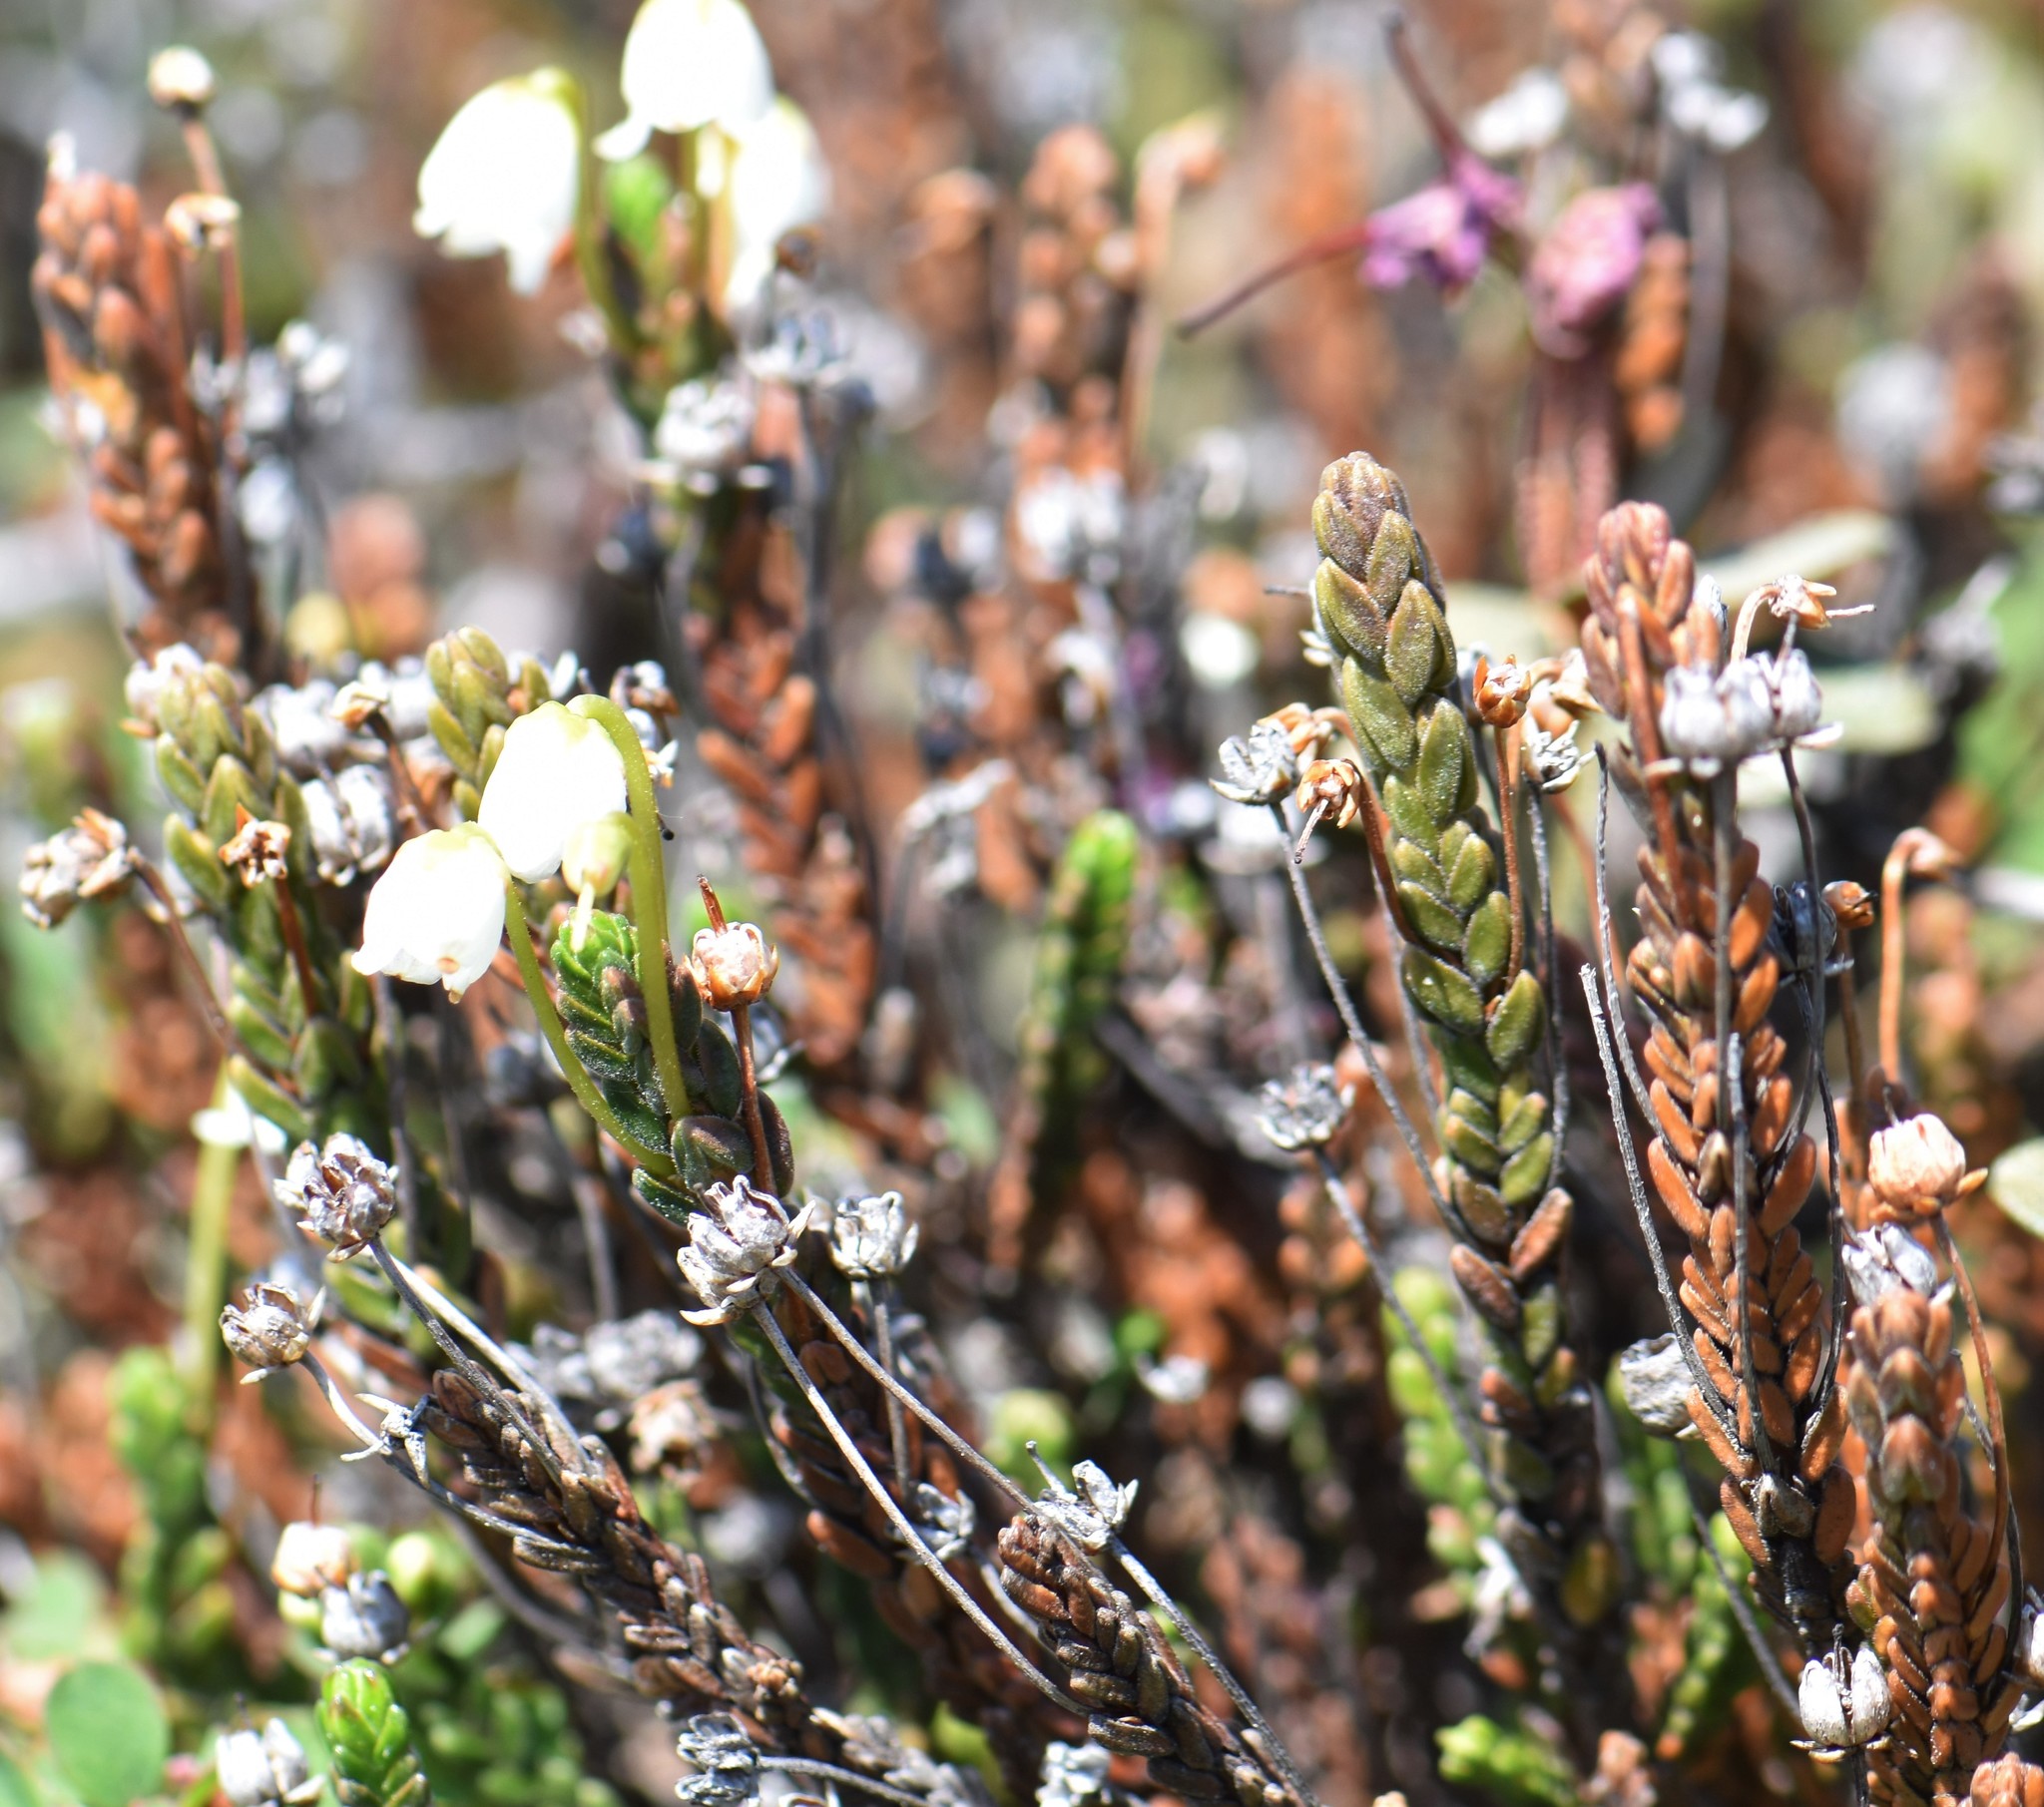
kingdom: Plantae
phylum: Tracheophyta
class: Magnoliopsida
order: Ericales
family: Ericaceae
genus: Cassiope
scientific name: Cassiope tetragona
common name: Arctic bell heather
